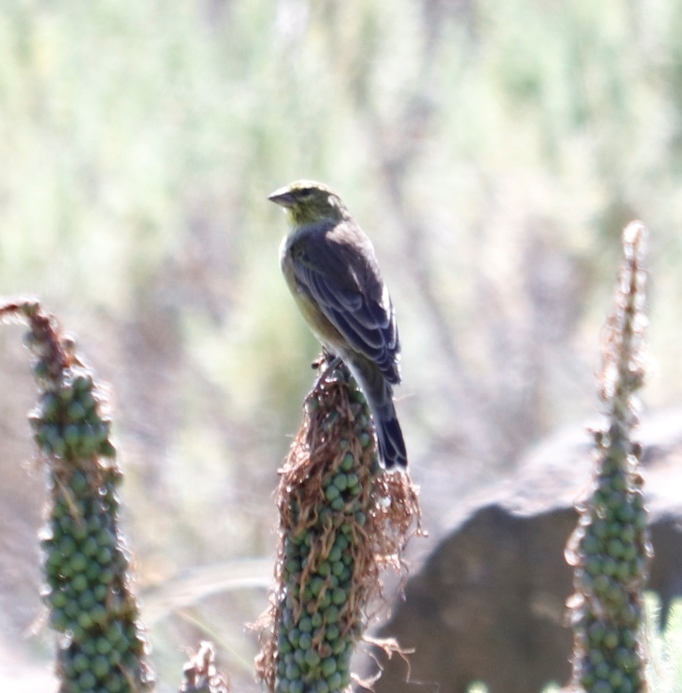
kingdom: Animalia
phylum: Chordata
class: Aves
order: Passeriformes
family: Fringillidae
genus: Crithagra
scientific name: Crithagra symonsi
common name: Drakensberg siskin
